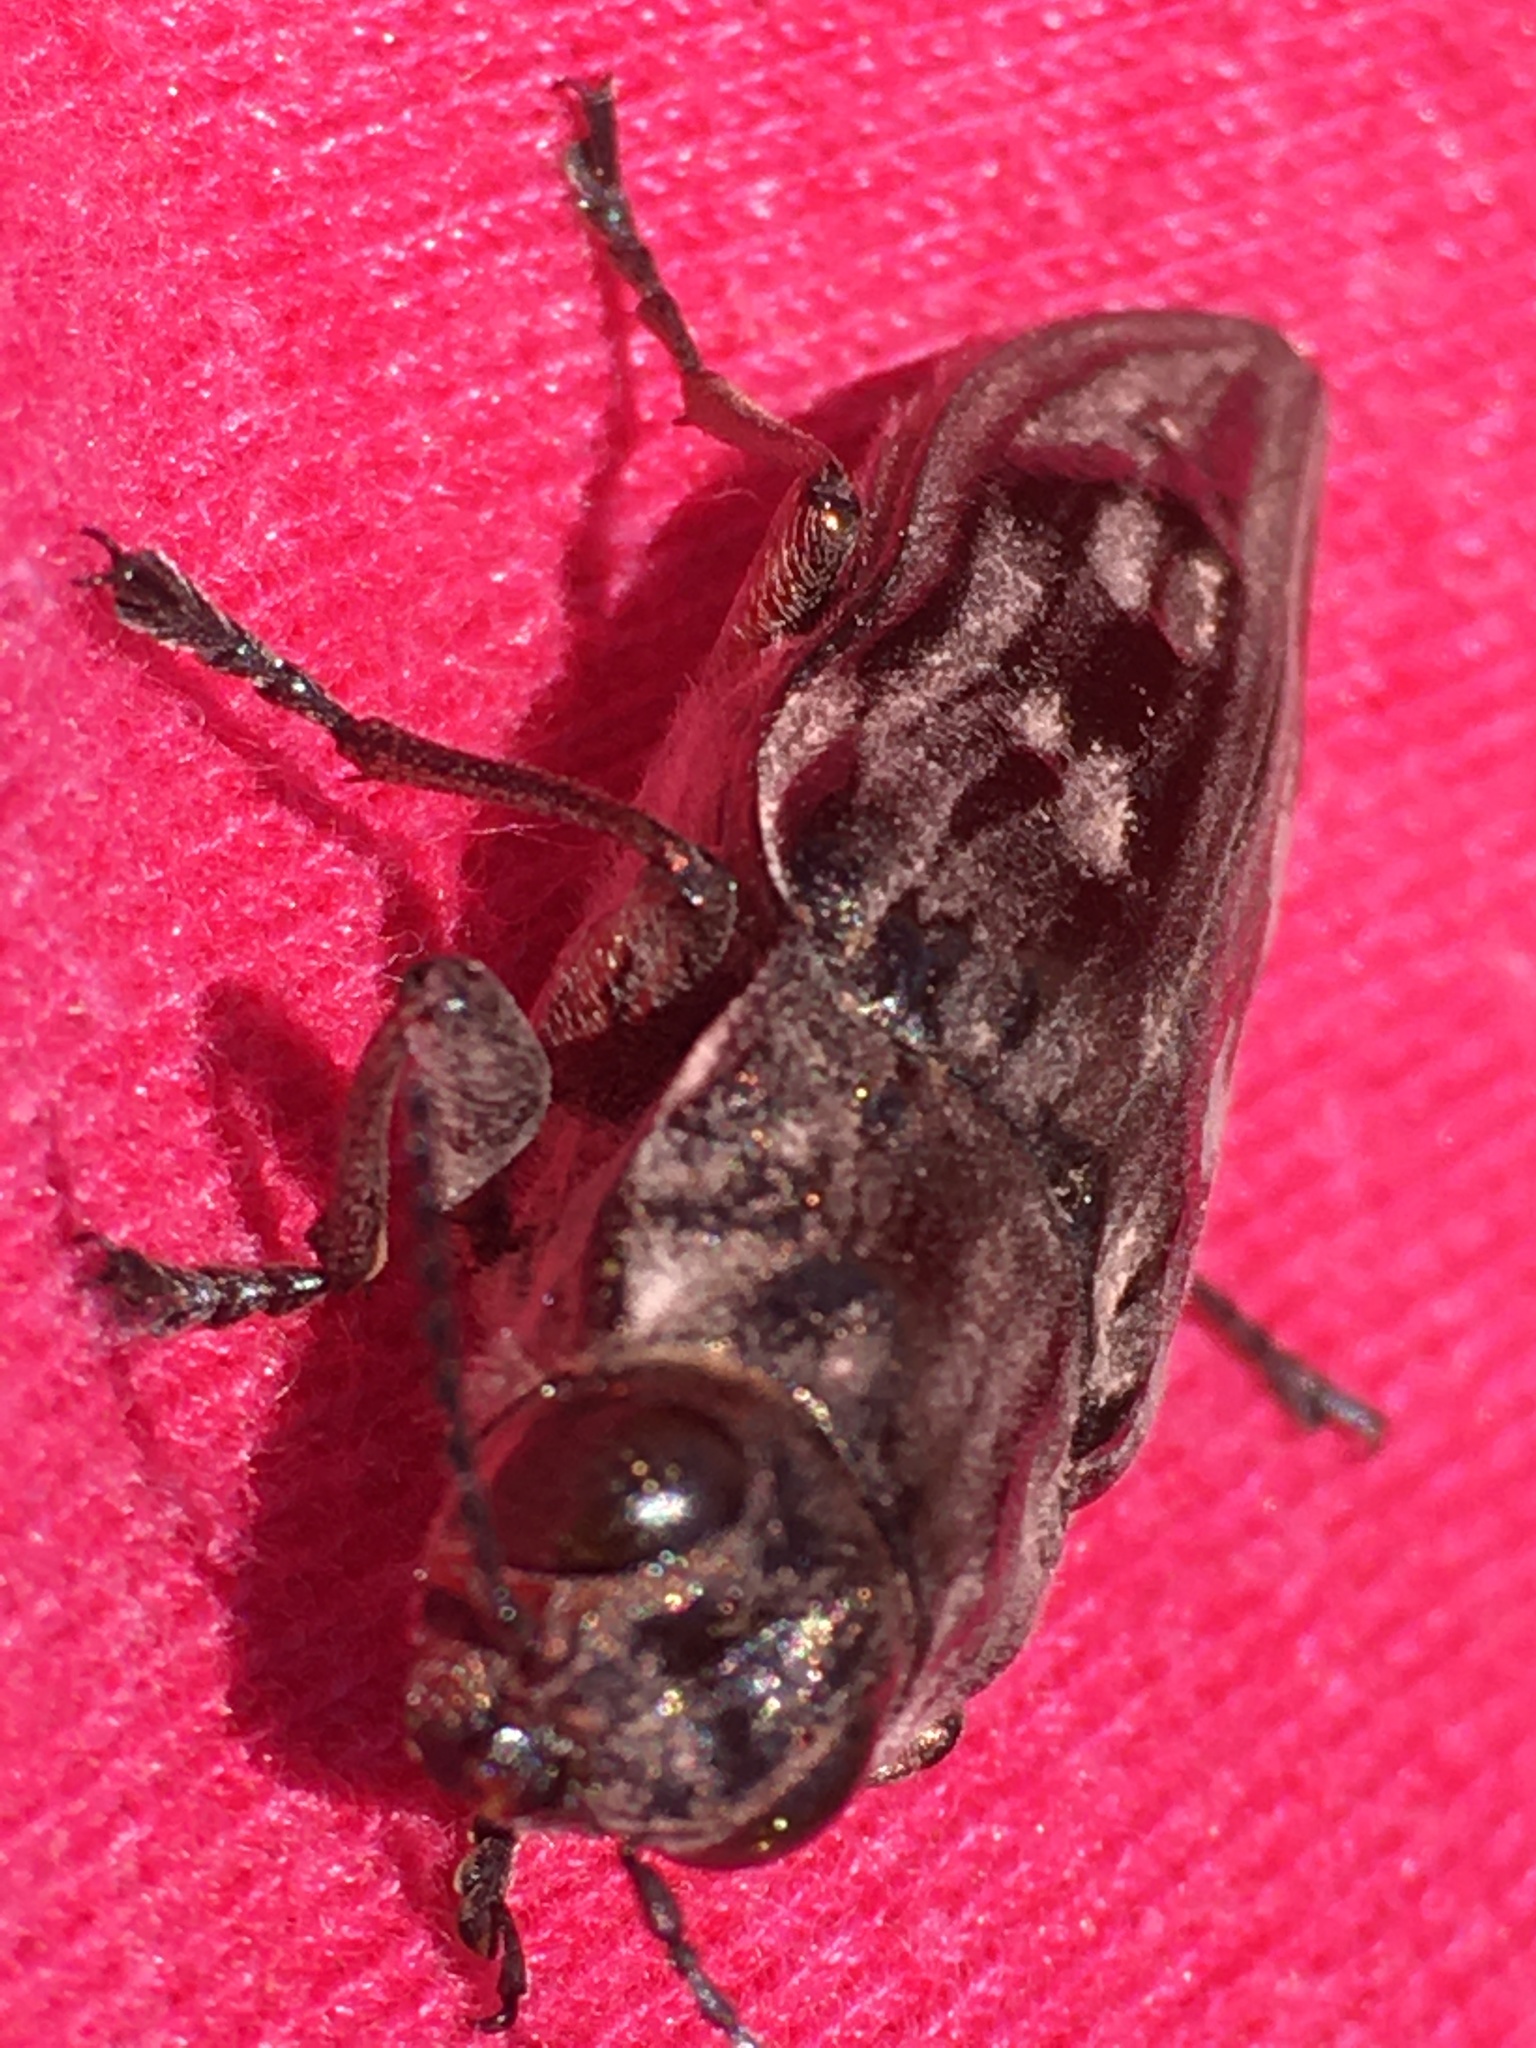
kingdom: Animalia
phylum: Arthropoda
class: Insecta
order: Coleoptera
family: Buprestidae
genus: Chalcophora
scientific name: Chalcophora virginiensis
